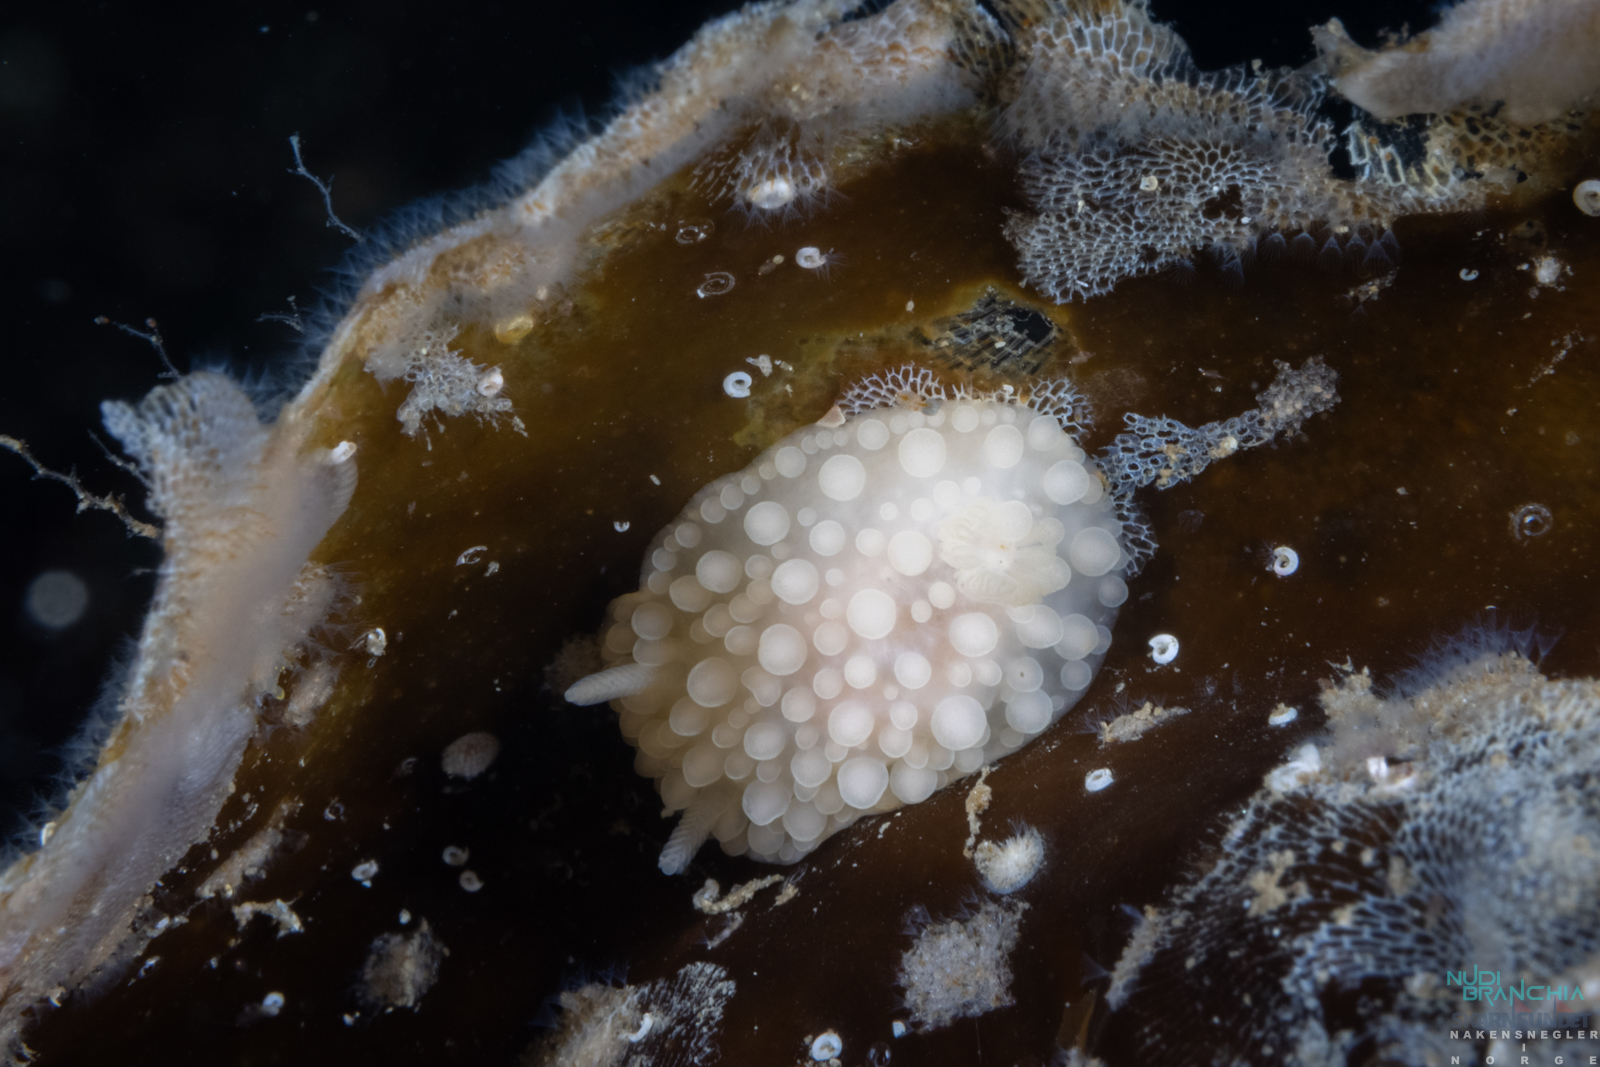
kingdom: Animalia
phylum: Mollusca
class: Gastropoda
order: Nudibranchia
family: Onchidorididae
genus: Adalaria
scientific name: Adalaria proxima
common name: False doris
